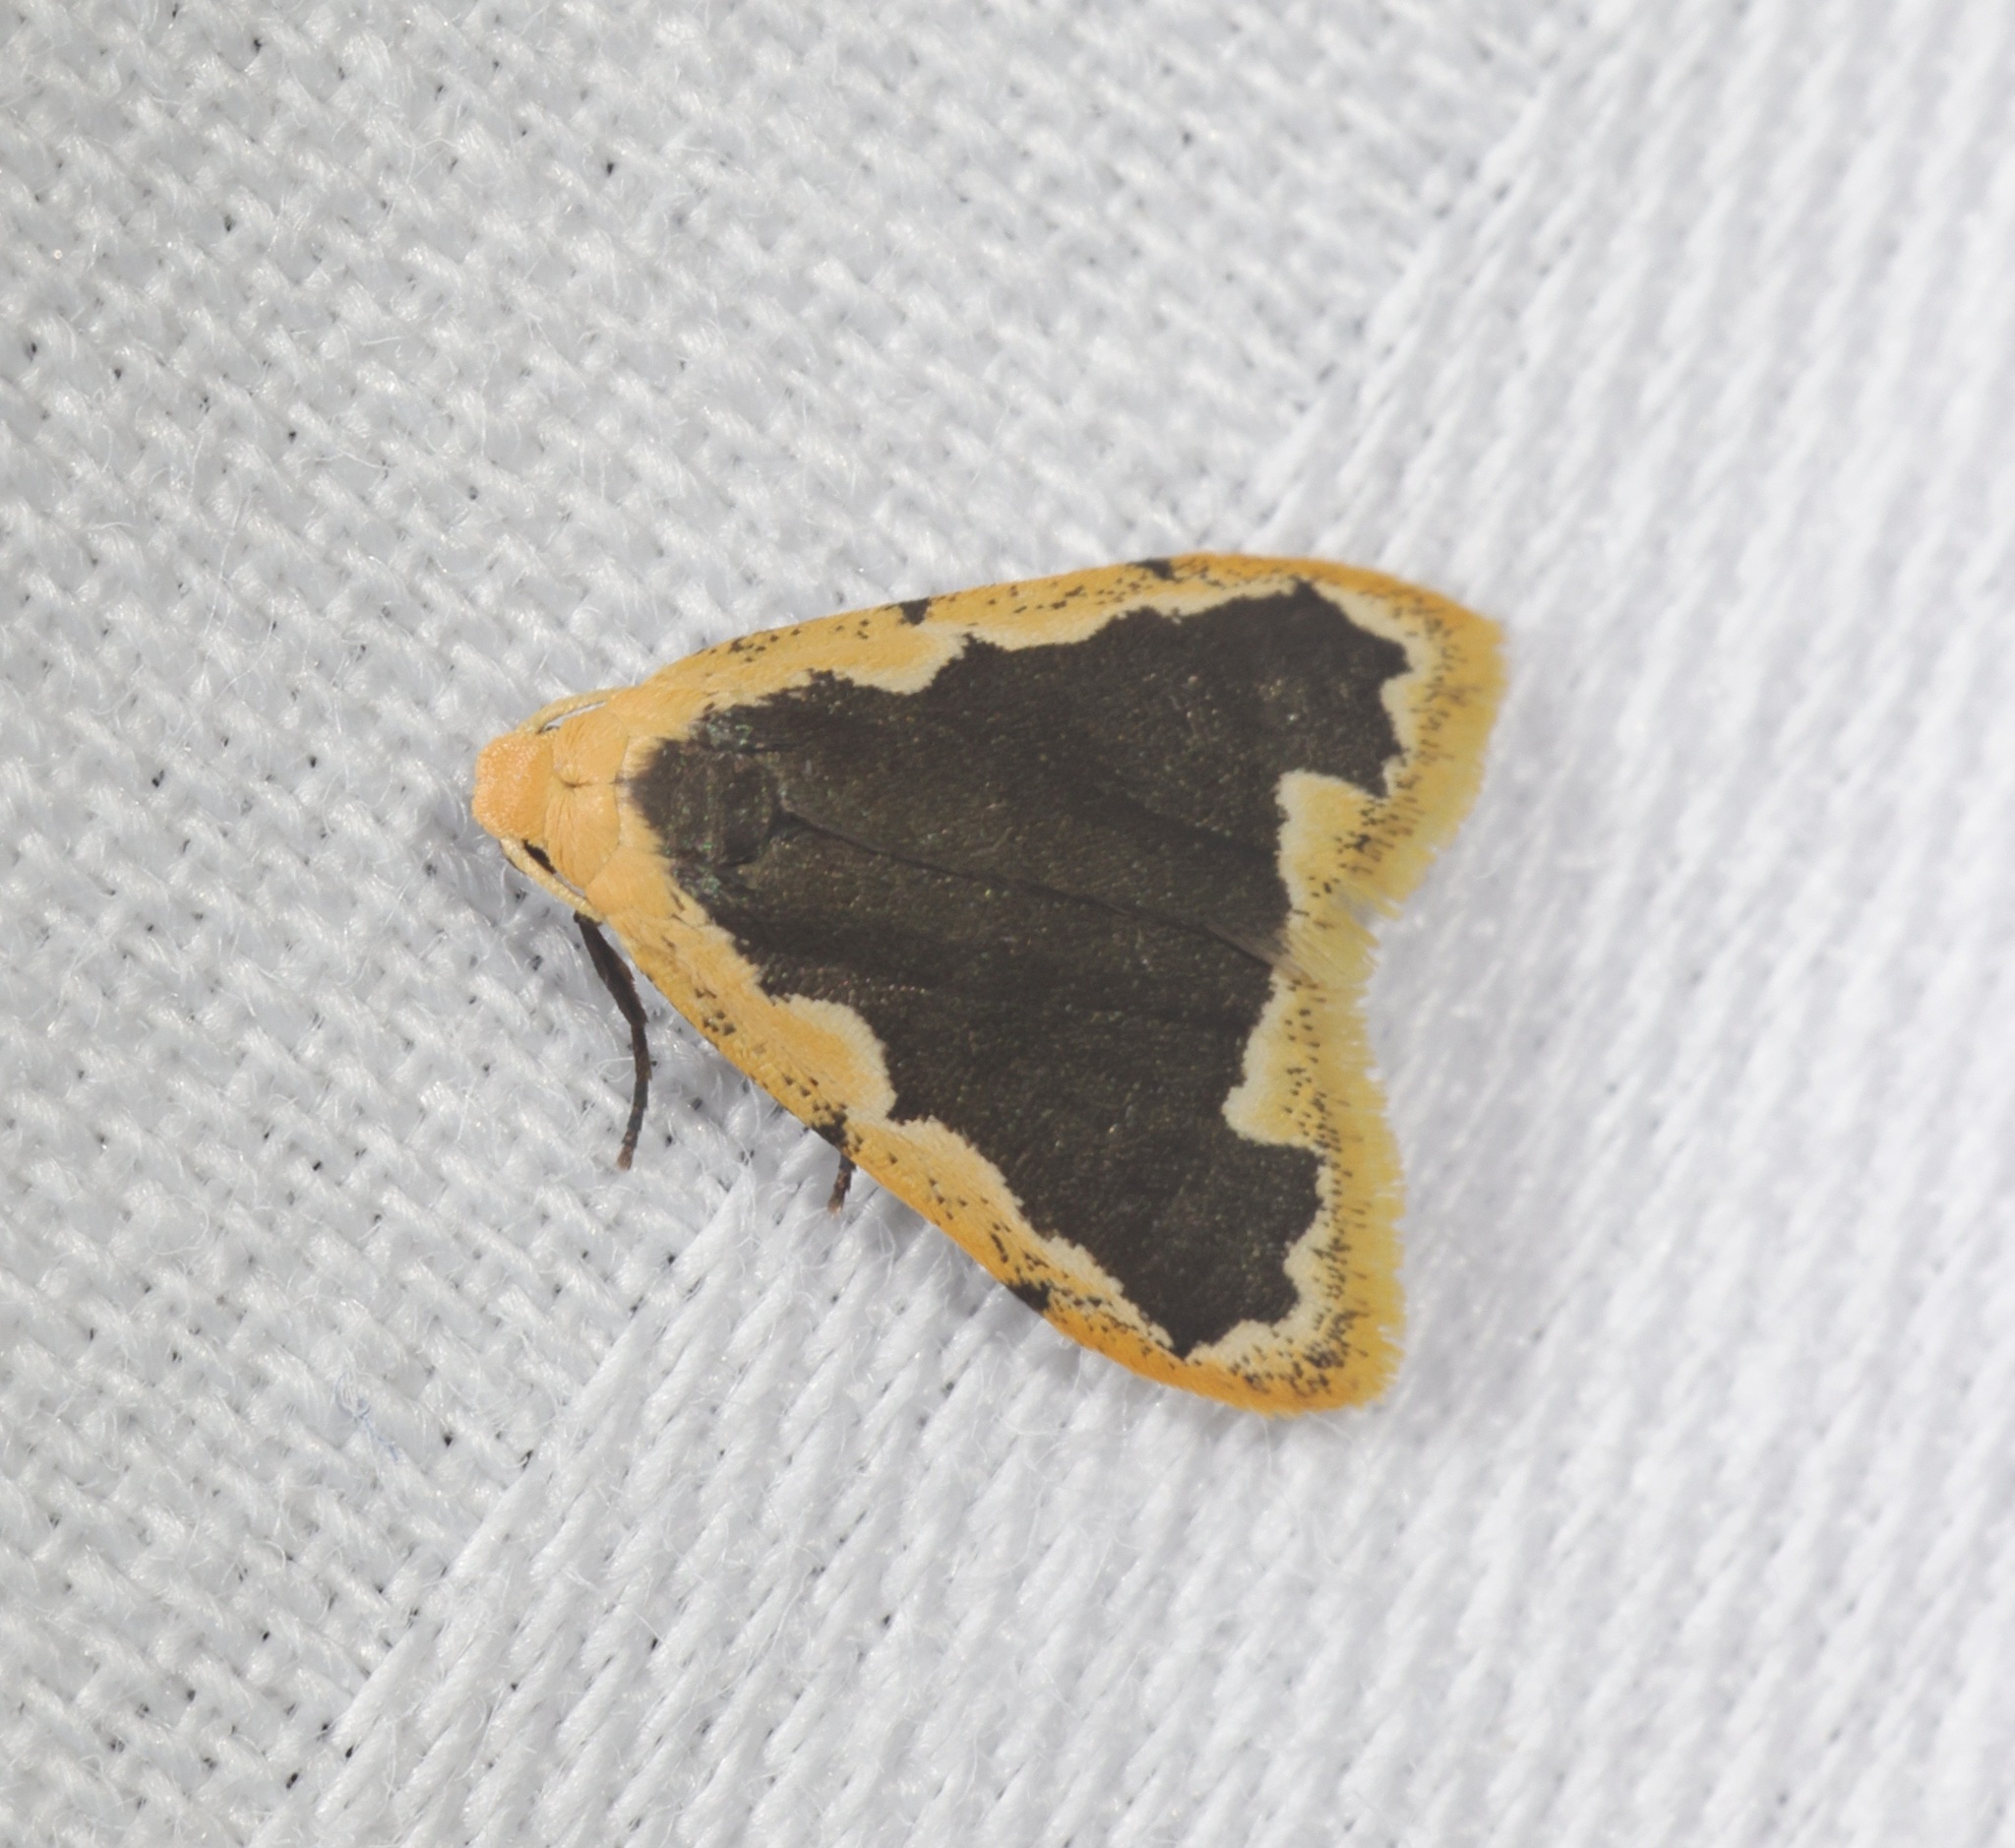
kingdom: Animalia
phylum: Arthropoda
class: Insecta
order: Lepidoptera
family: Erebidae
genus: Diduga
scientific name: Diduga flavicostata
